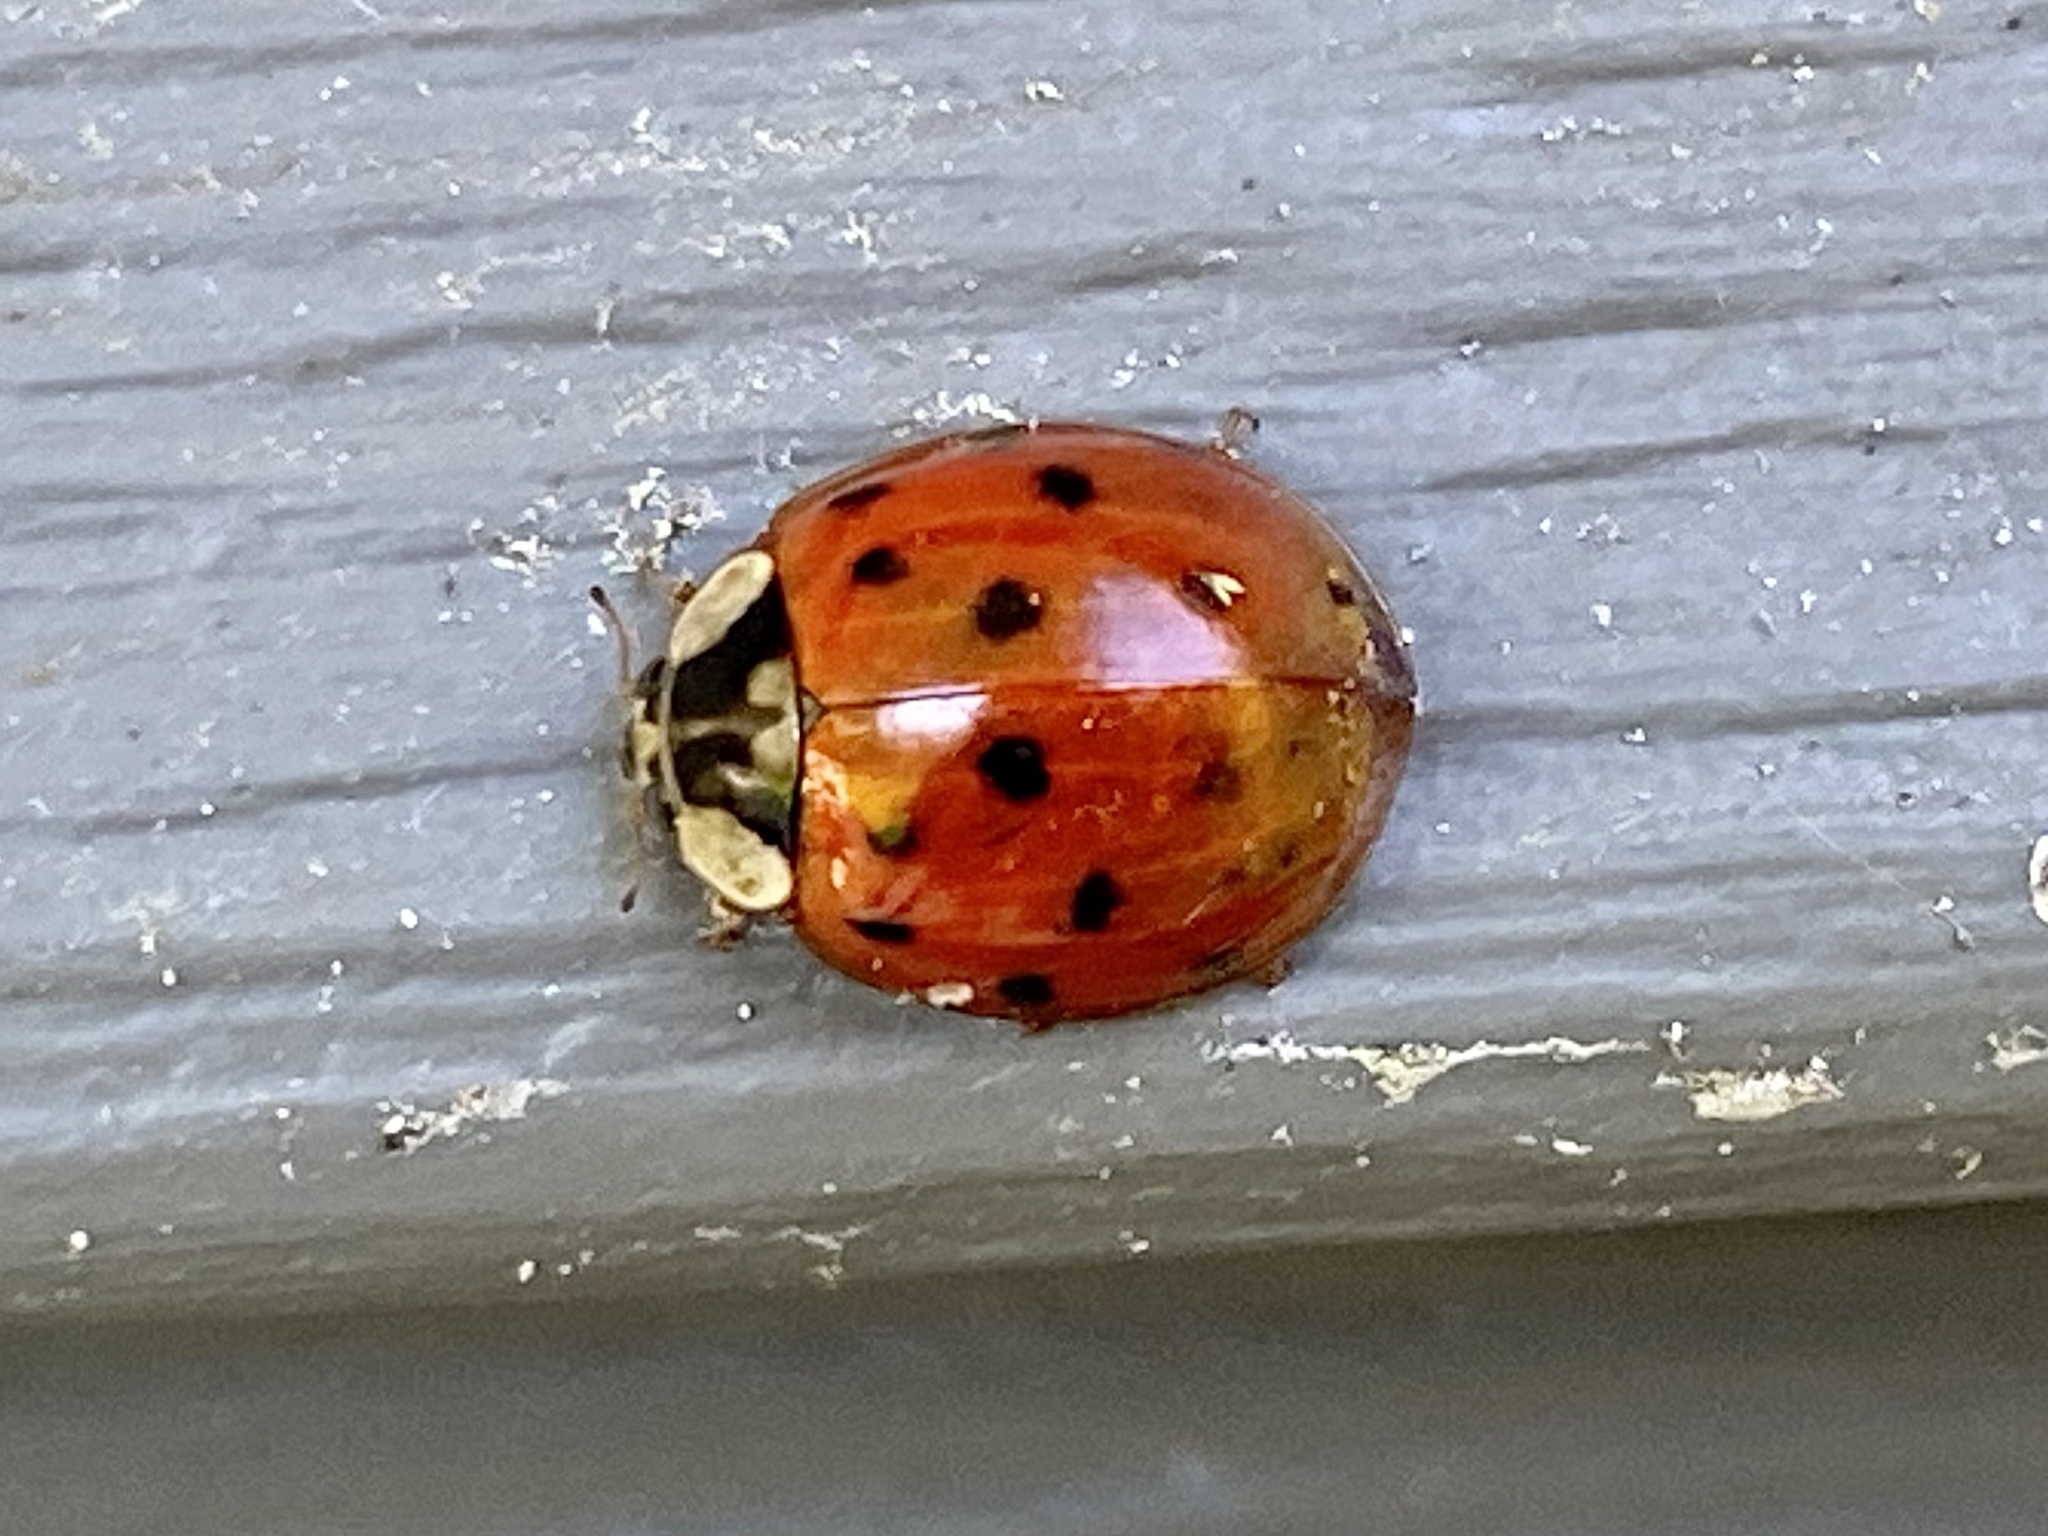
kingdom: Animalia
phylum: Arthropoda
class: Insecta
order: Coleoptera
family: Coccinellidae
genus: Harmonia
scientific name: Harmonia axyridis
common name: Harlequin ladybird
